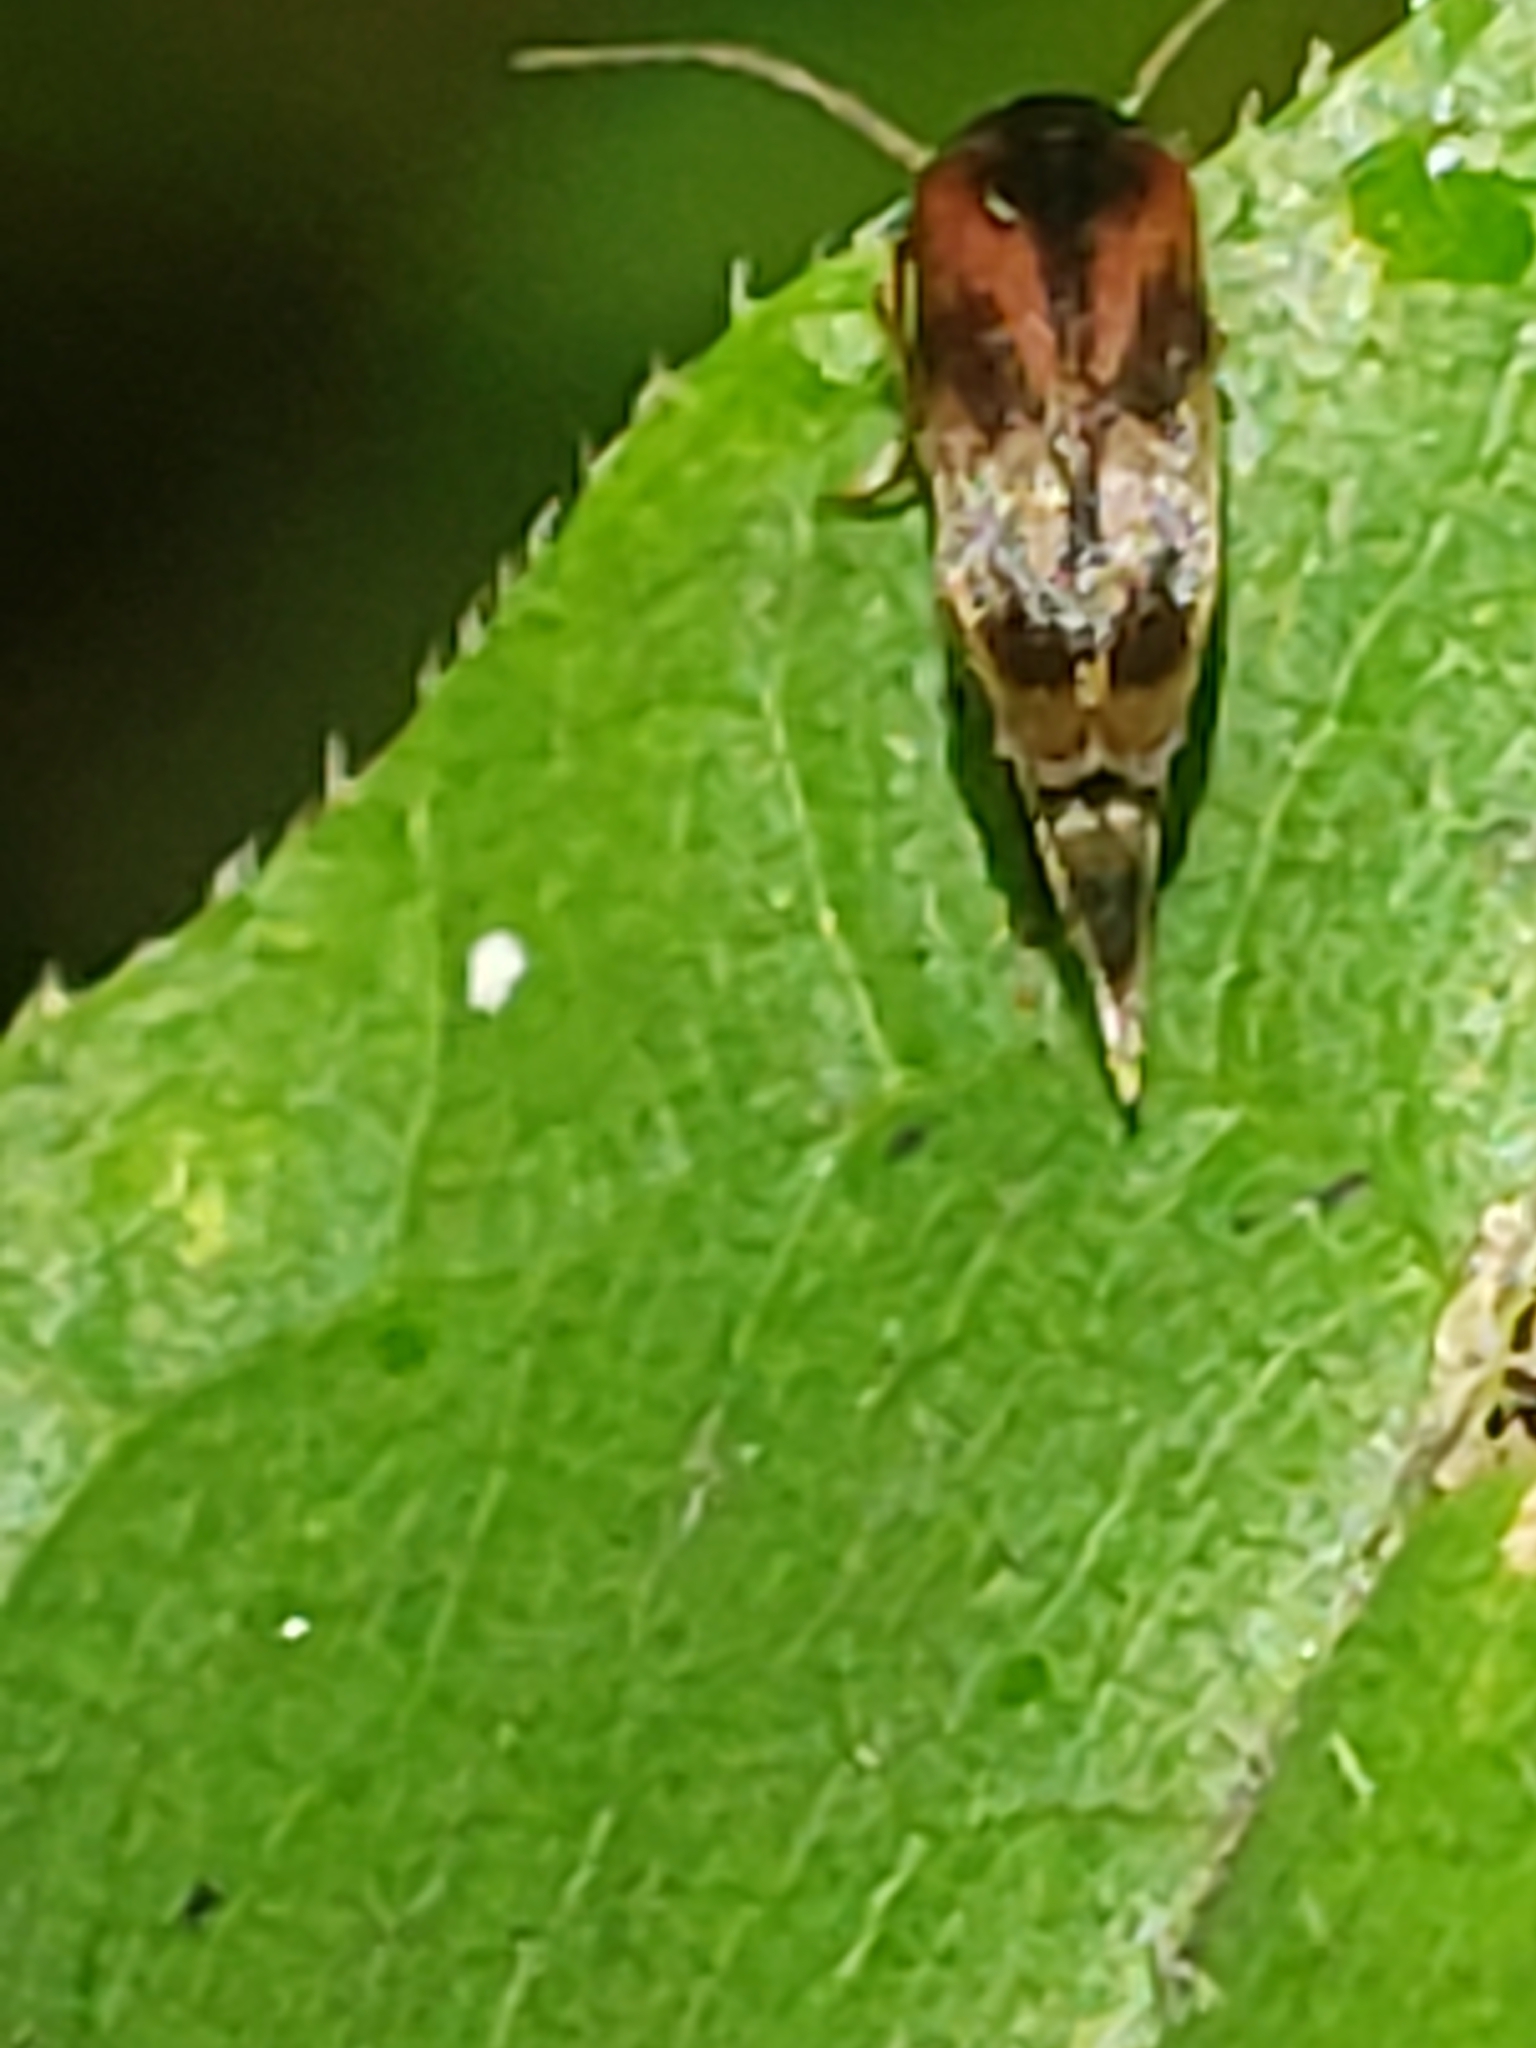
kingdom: Animalia
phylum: Arthropoda
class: Insecta
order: Coleoptera
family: Mordellidae
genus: Falsomordellistena
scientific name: Falsomordellistena bihamata
